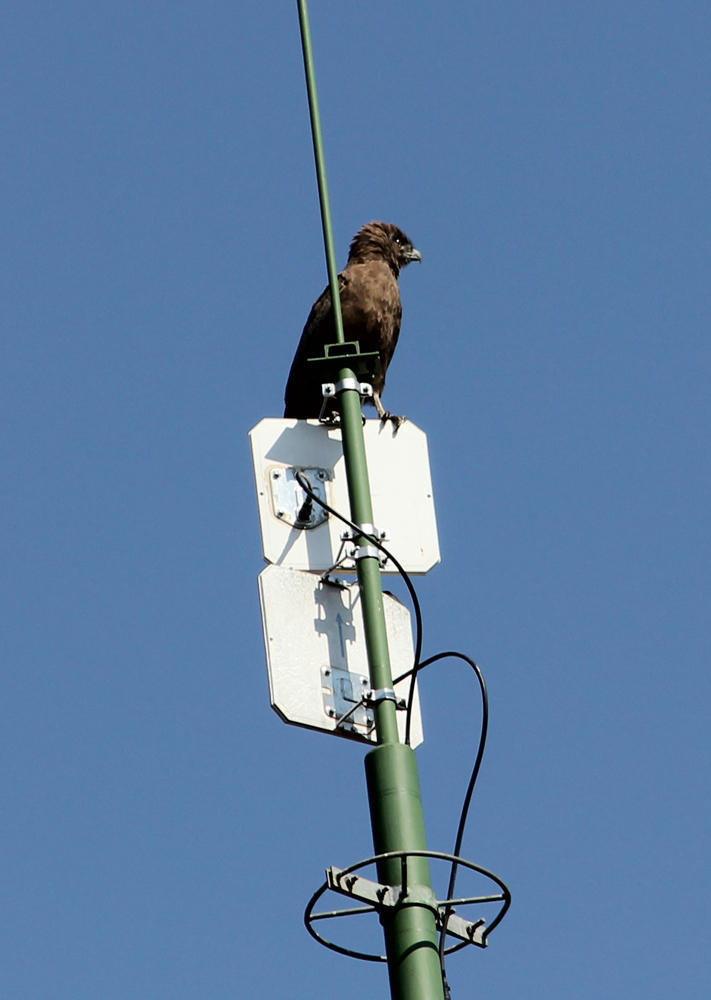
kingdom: Animalia
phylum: Chordata
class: Aves
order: Accipitriformes
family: Accipitridae
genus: Circaetus
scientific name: Circaetus cinereus
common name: Brown snake eagle
